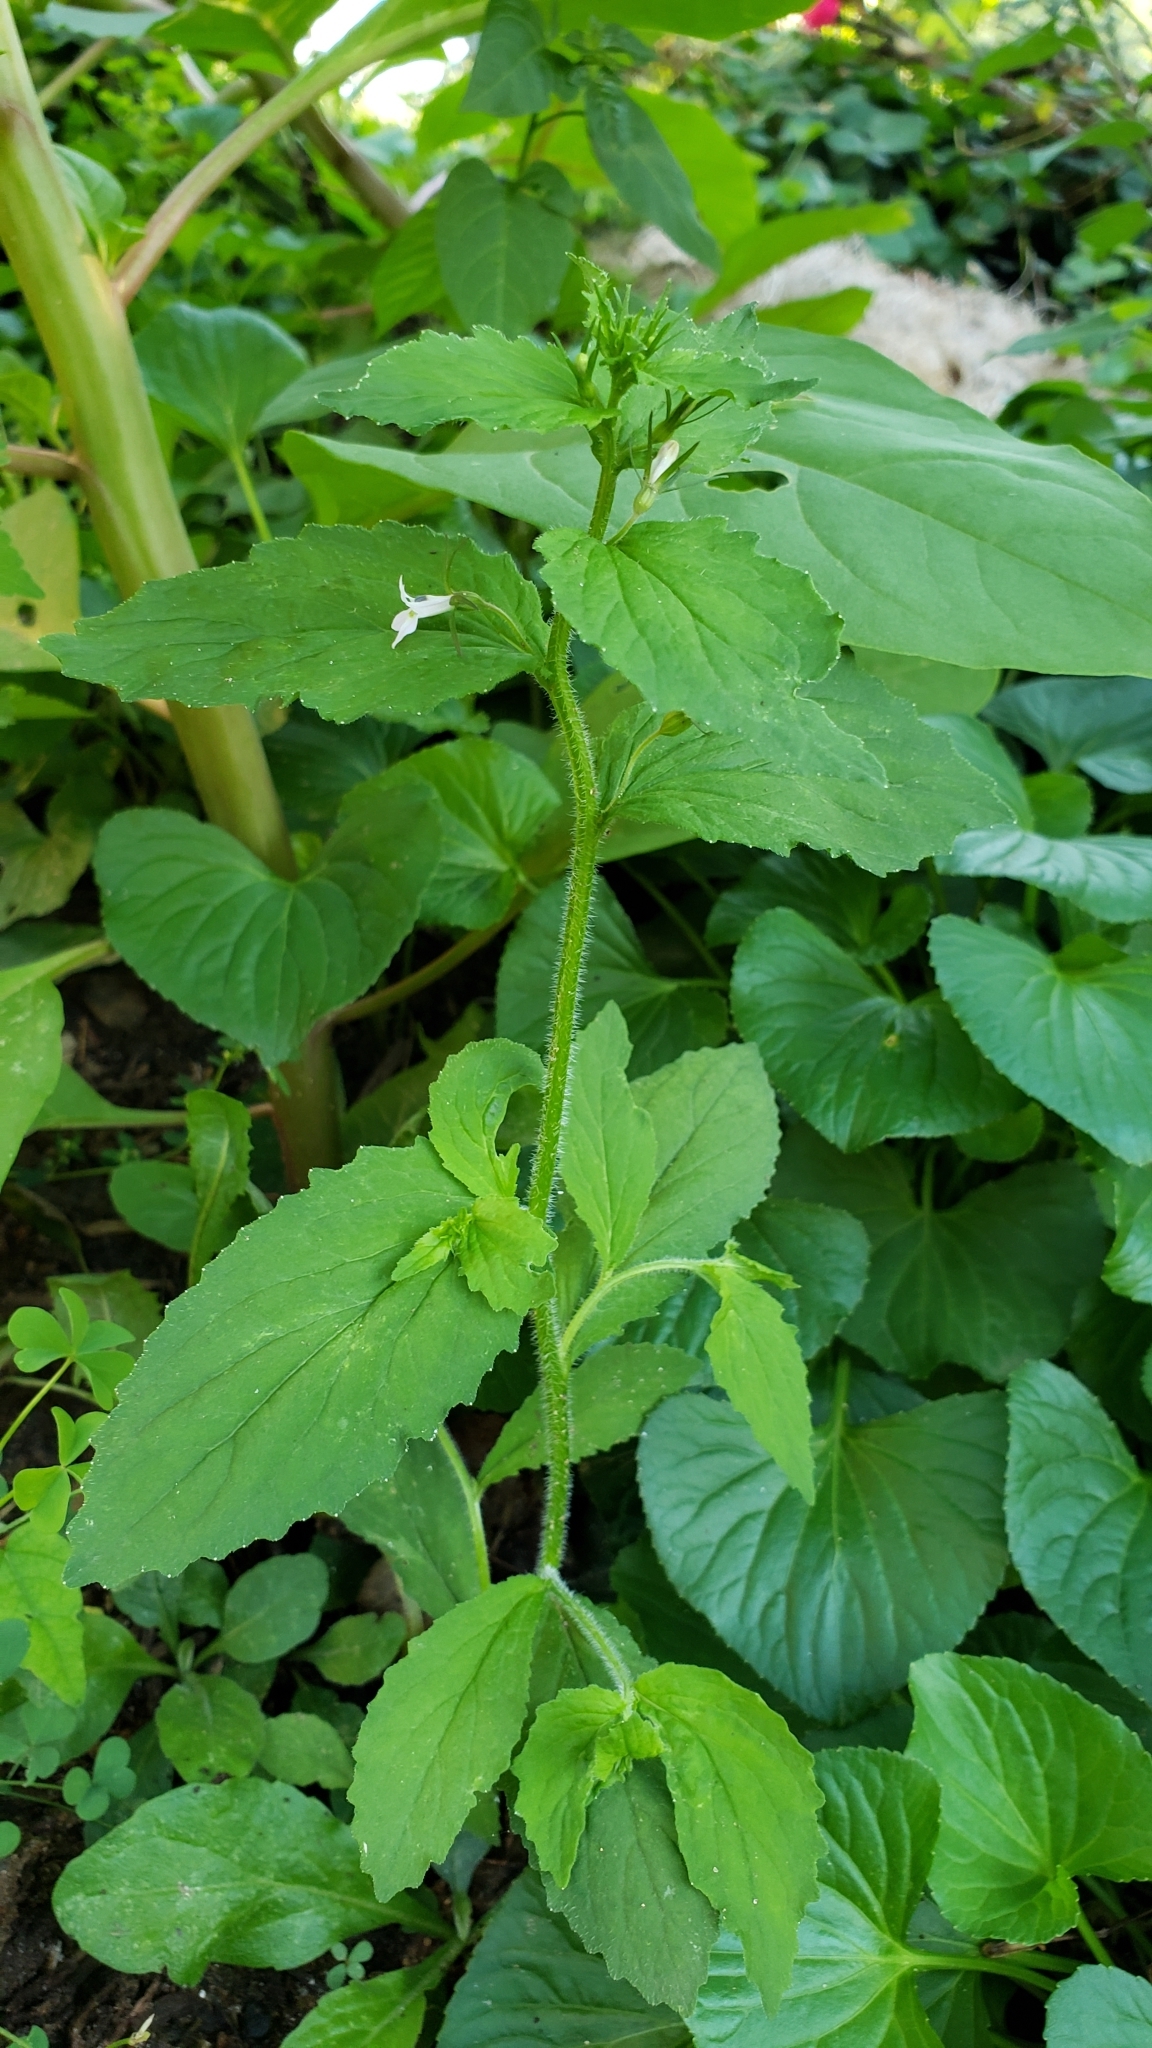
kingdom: Plantae
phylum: Tracheophyta
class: Magnoliopsida
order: Asterales
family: Campanulaceae
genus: Lobelia
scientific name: Lobelia inflata
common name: Indian tobacco
